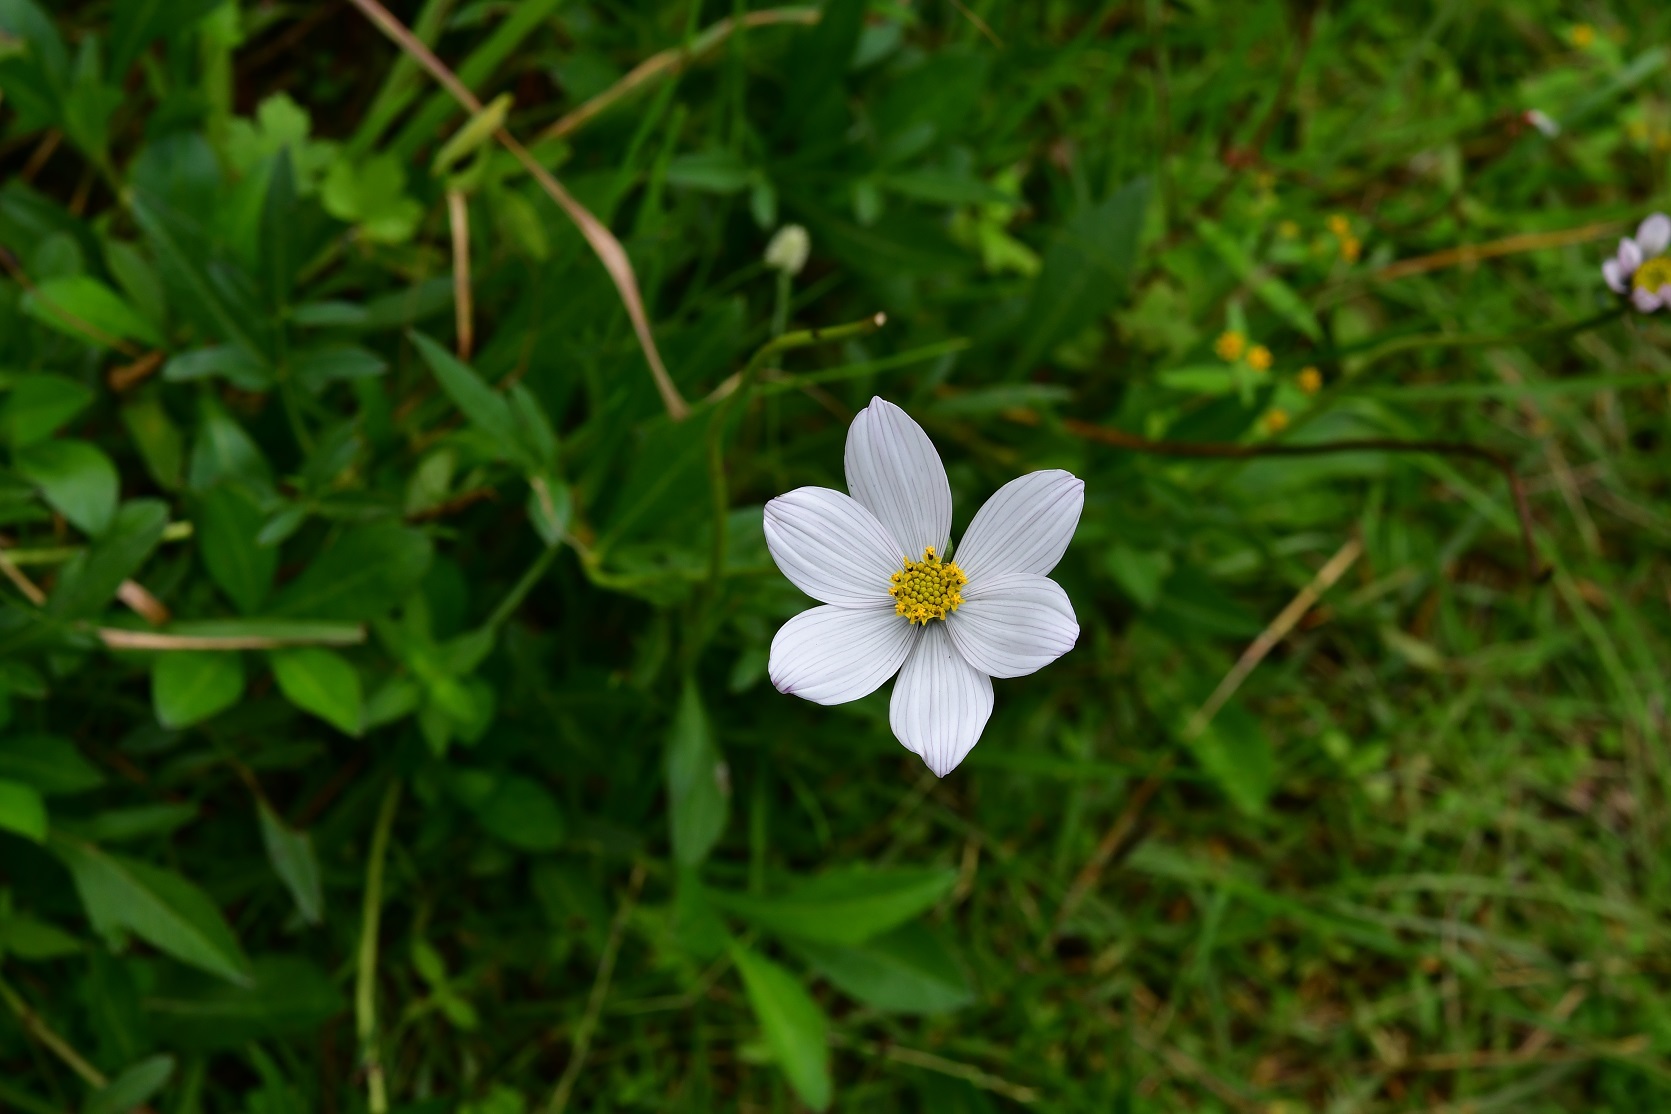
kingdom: Plantae
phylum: Tracheophyta
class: Magnoliopsida
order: Asterales
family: Asteraceae
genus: Cosmos
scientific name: Cosmos diversifolius
